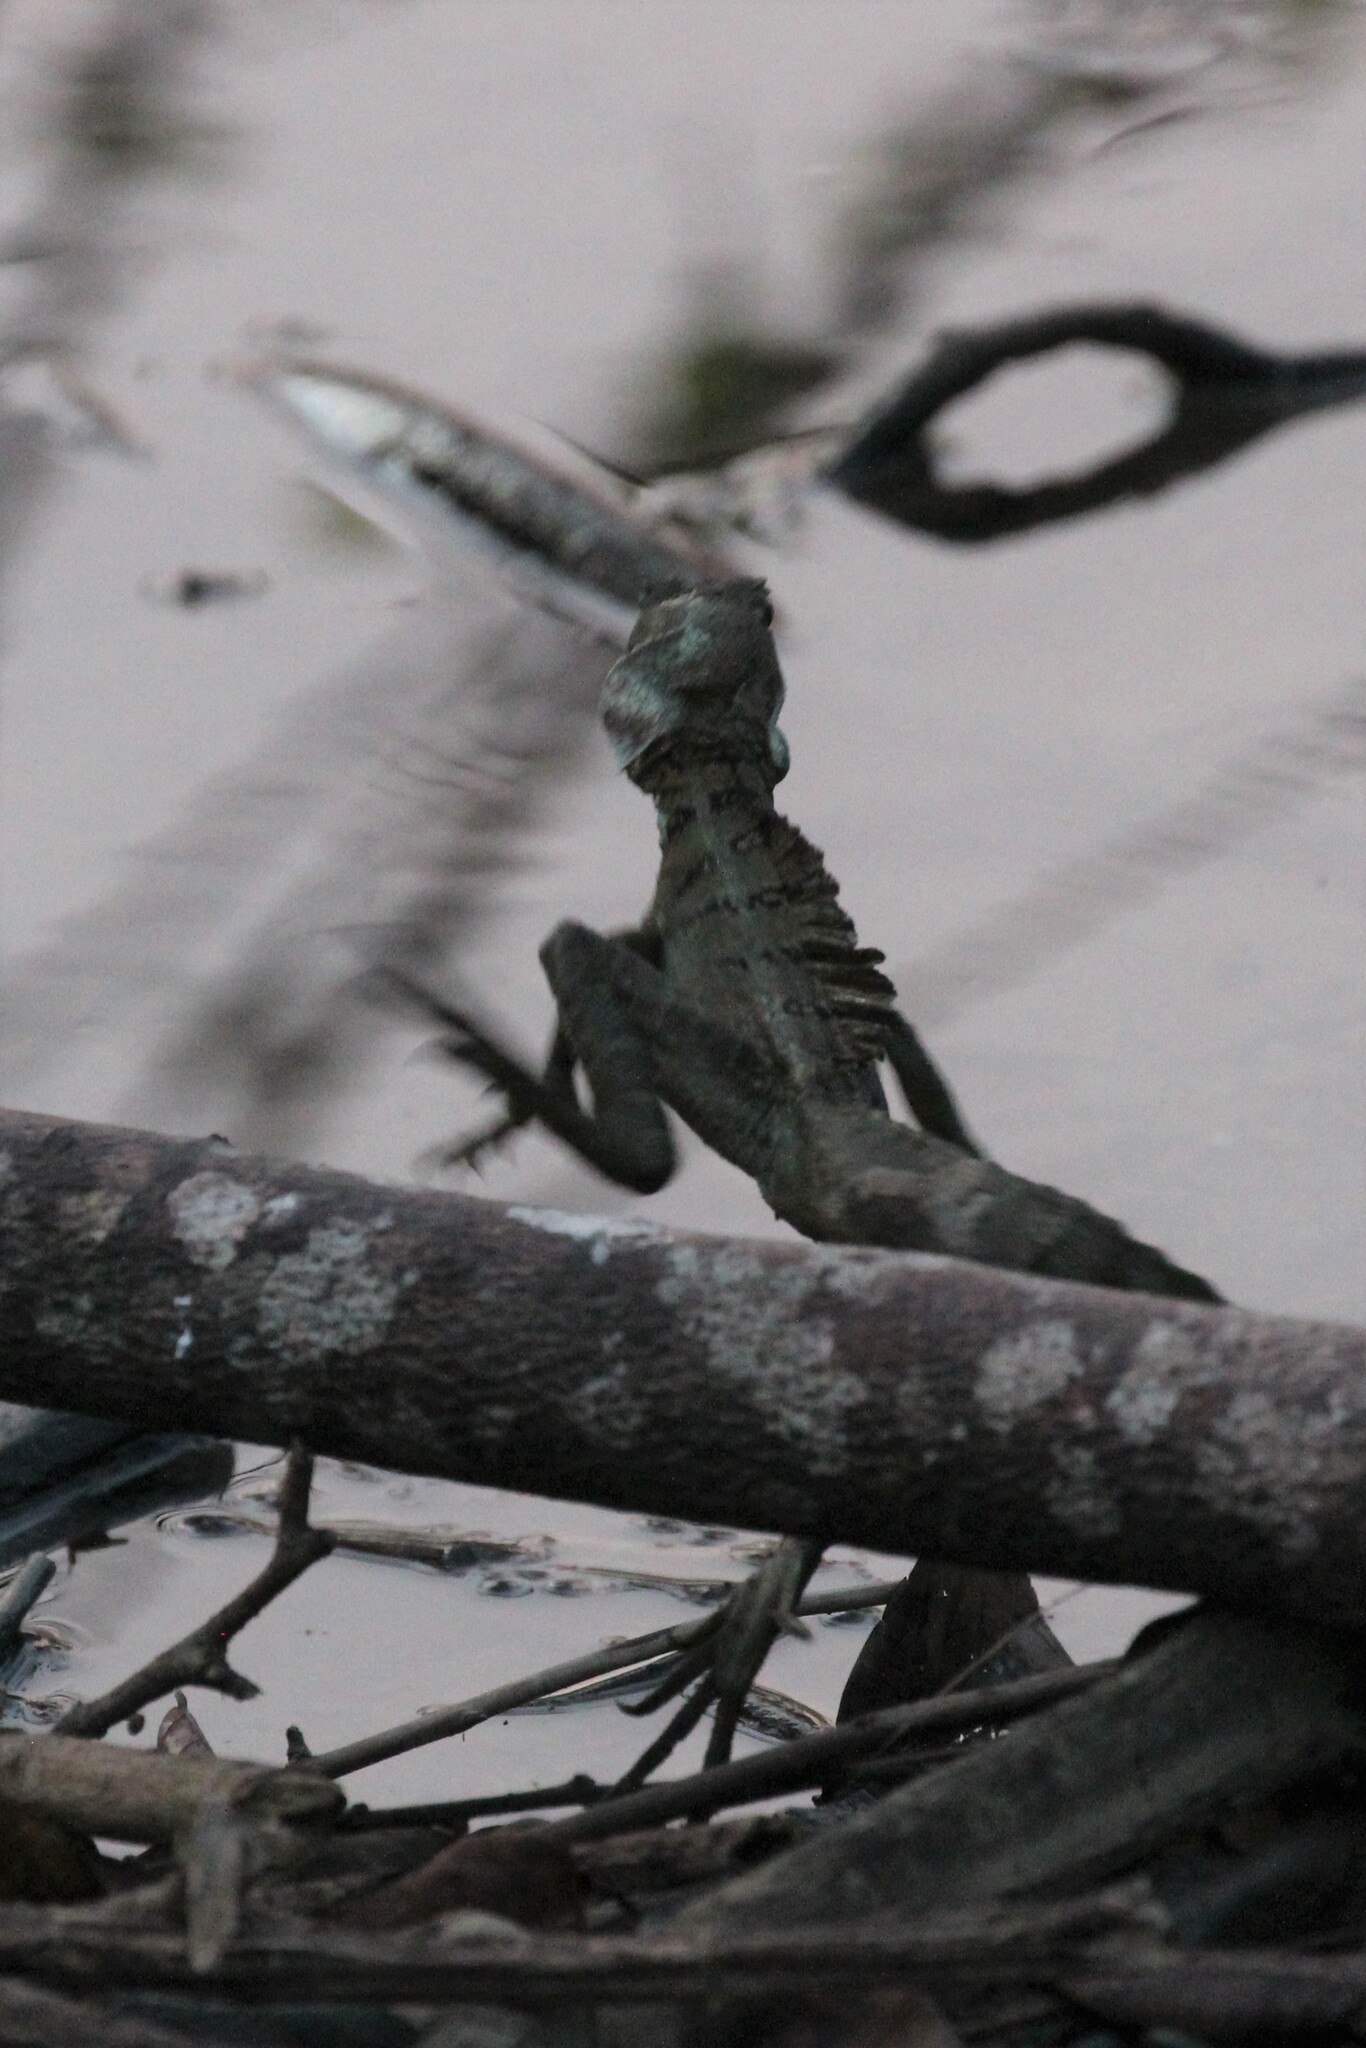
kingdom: Animalia
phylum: Chordata
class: Squamata
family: Corytophanidae
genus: Basiliscus
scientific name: Basiliscus basiliscus
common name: Common basilisk
